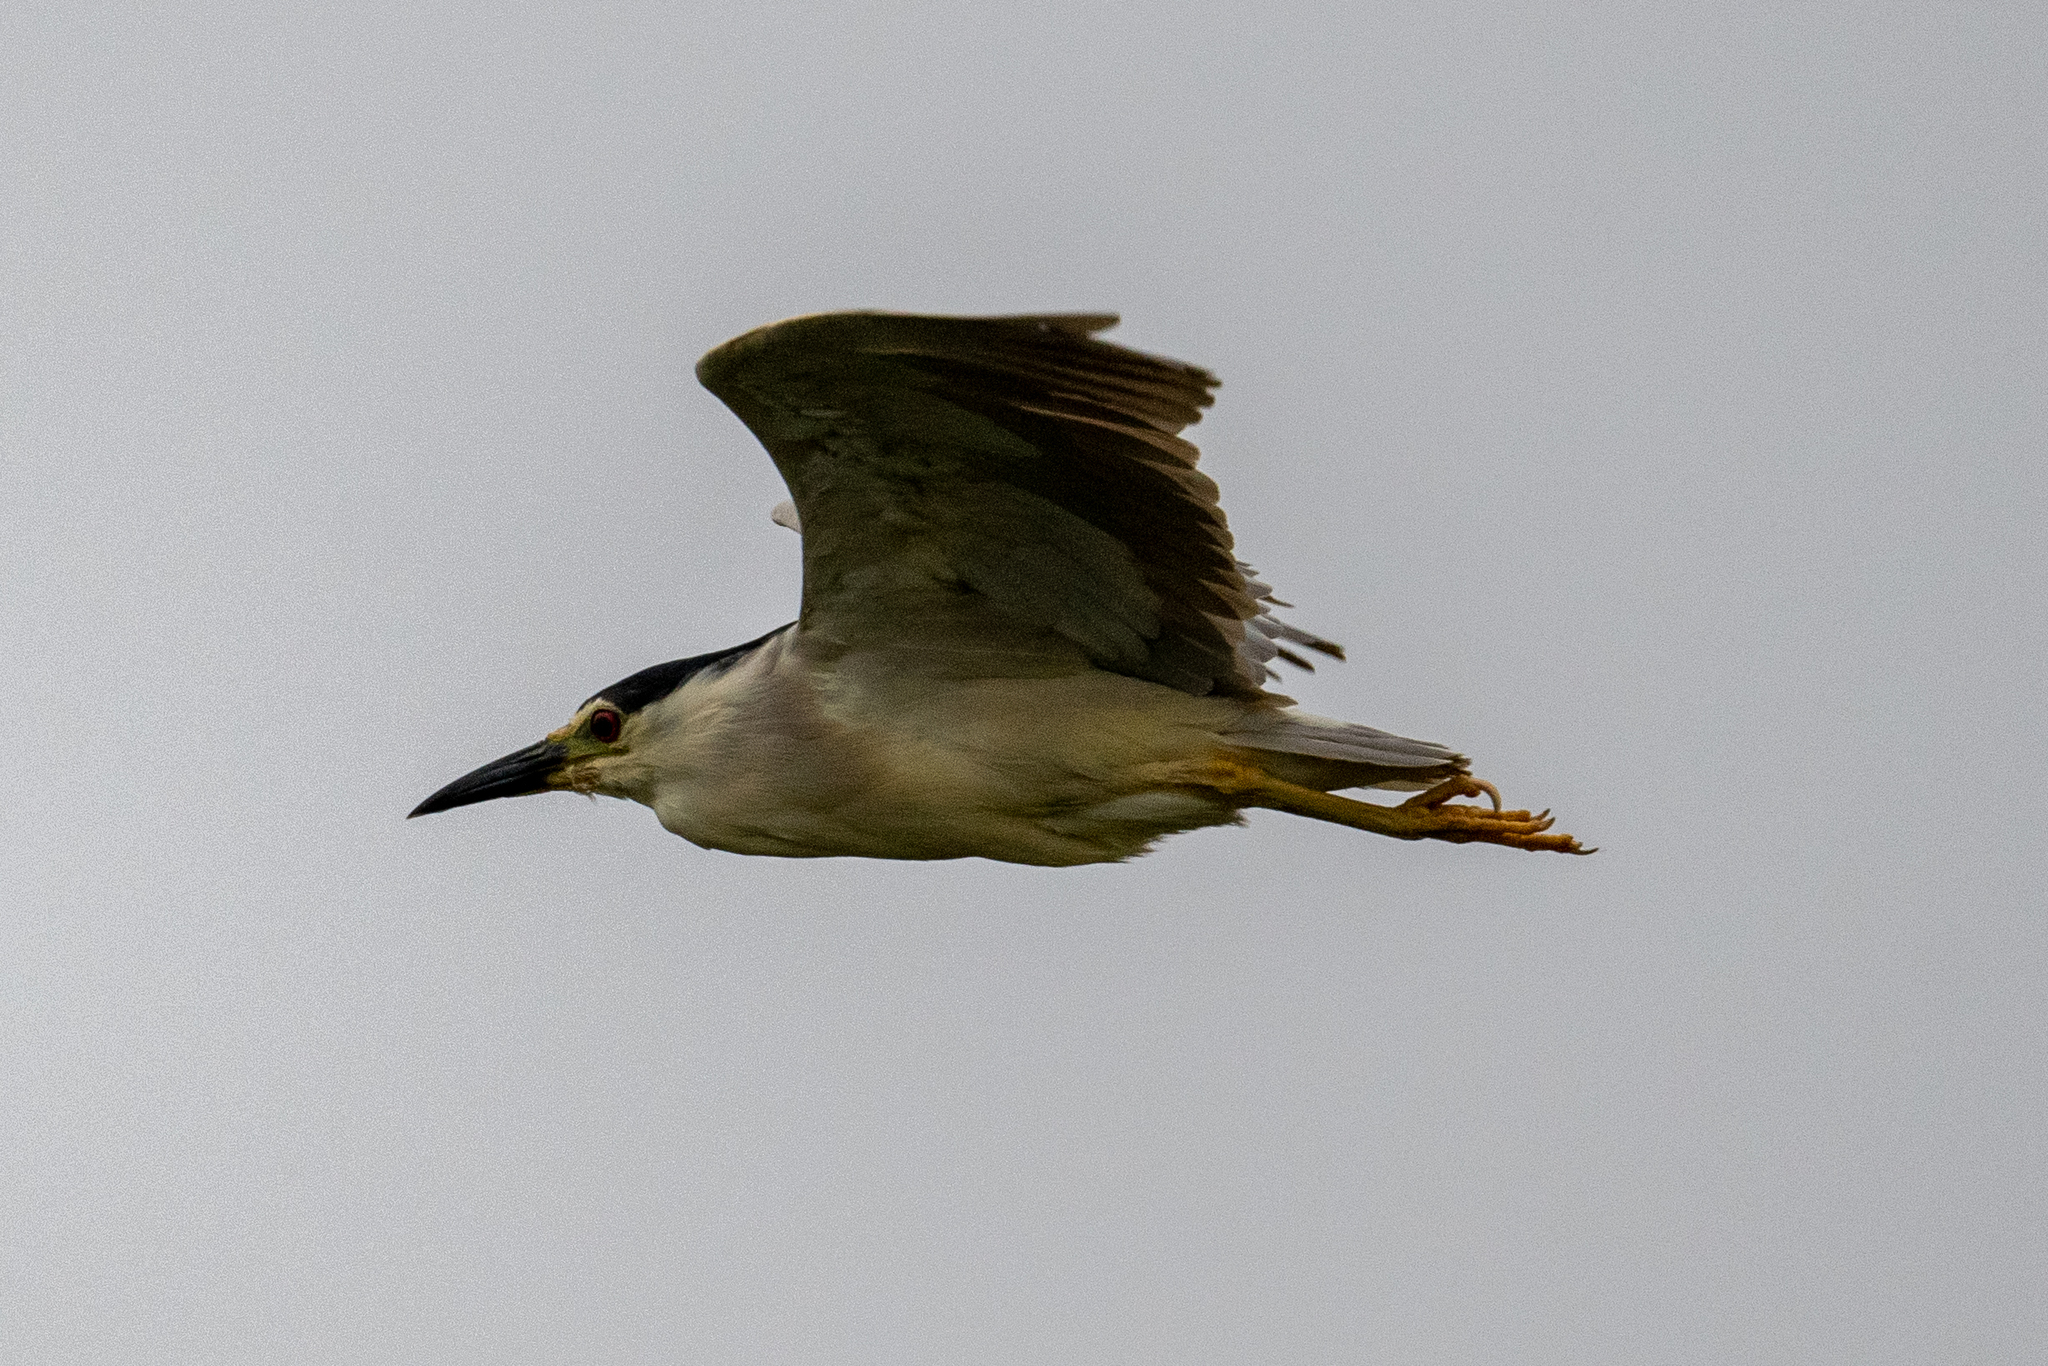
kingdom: Animalia
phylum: Chordata
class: Aves
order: Pelecaniformes
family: Ardeidae
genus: Nycticorax
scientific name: Nycticorax nycticorax
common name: Black-crowned night heron
